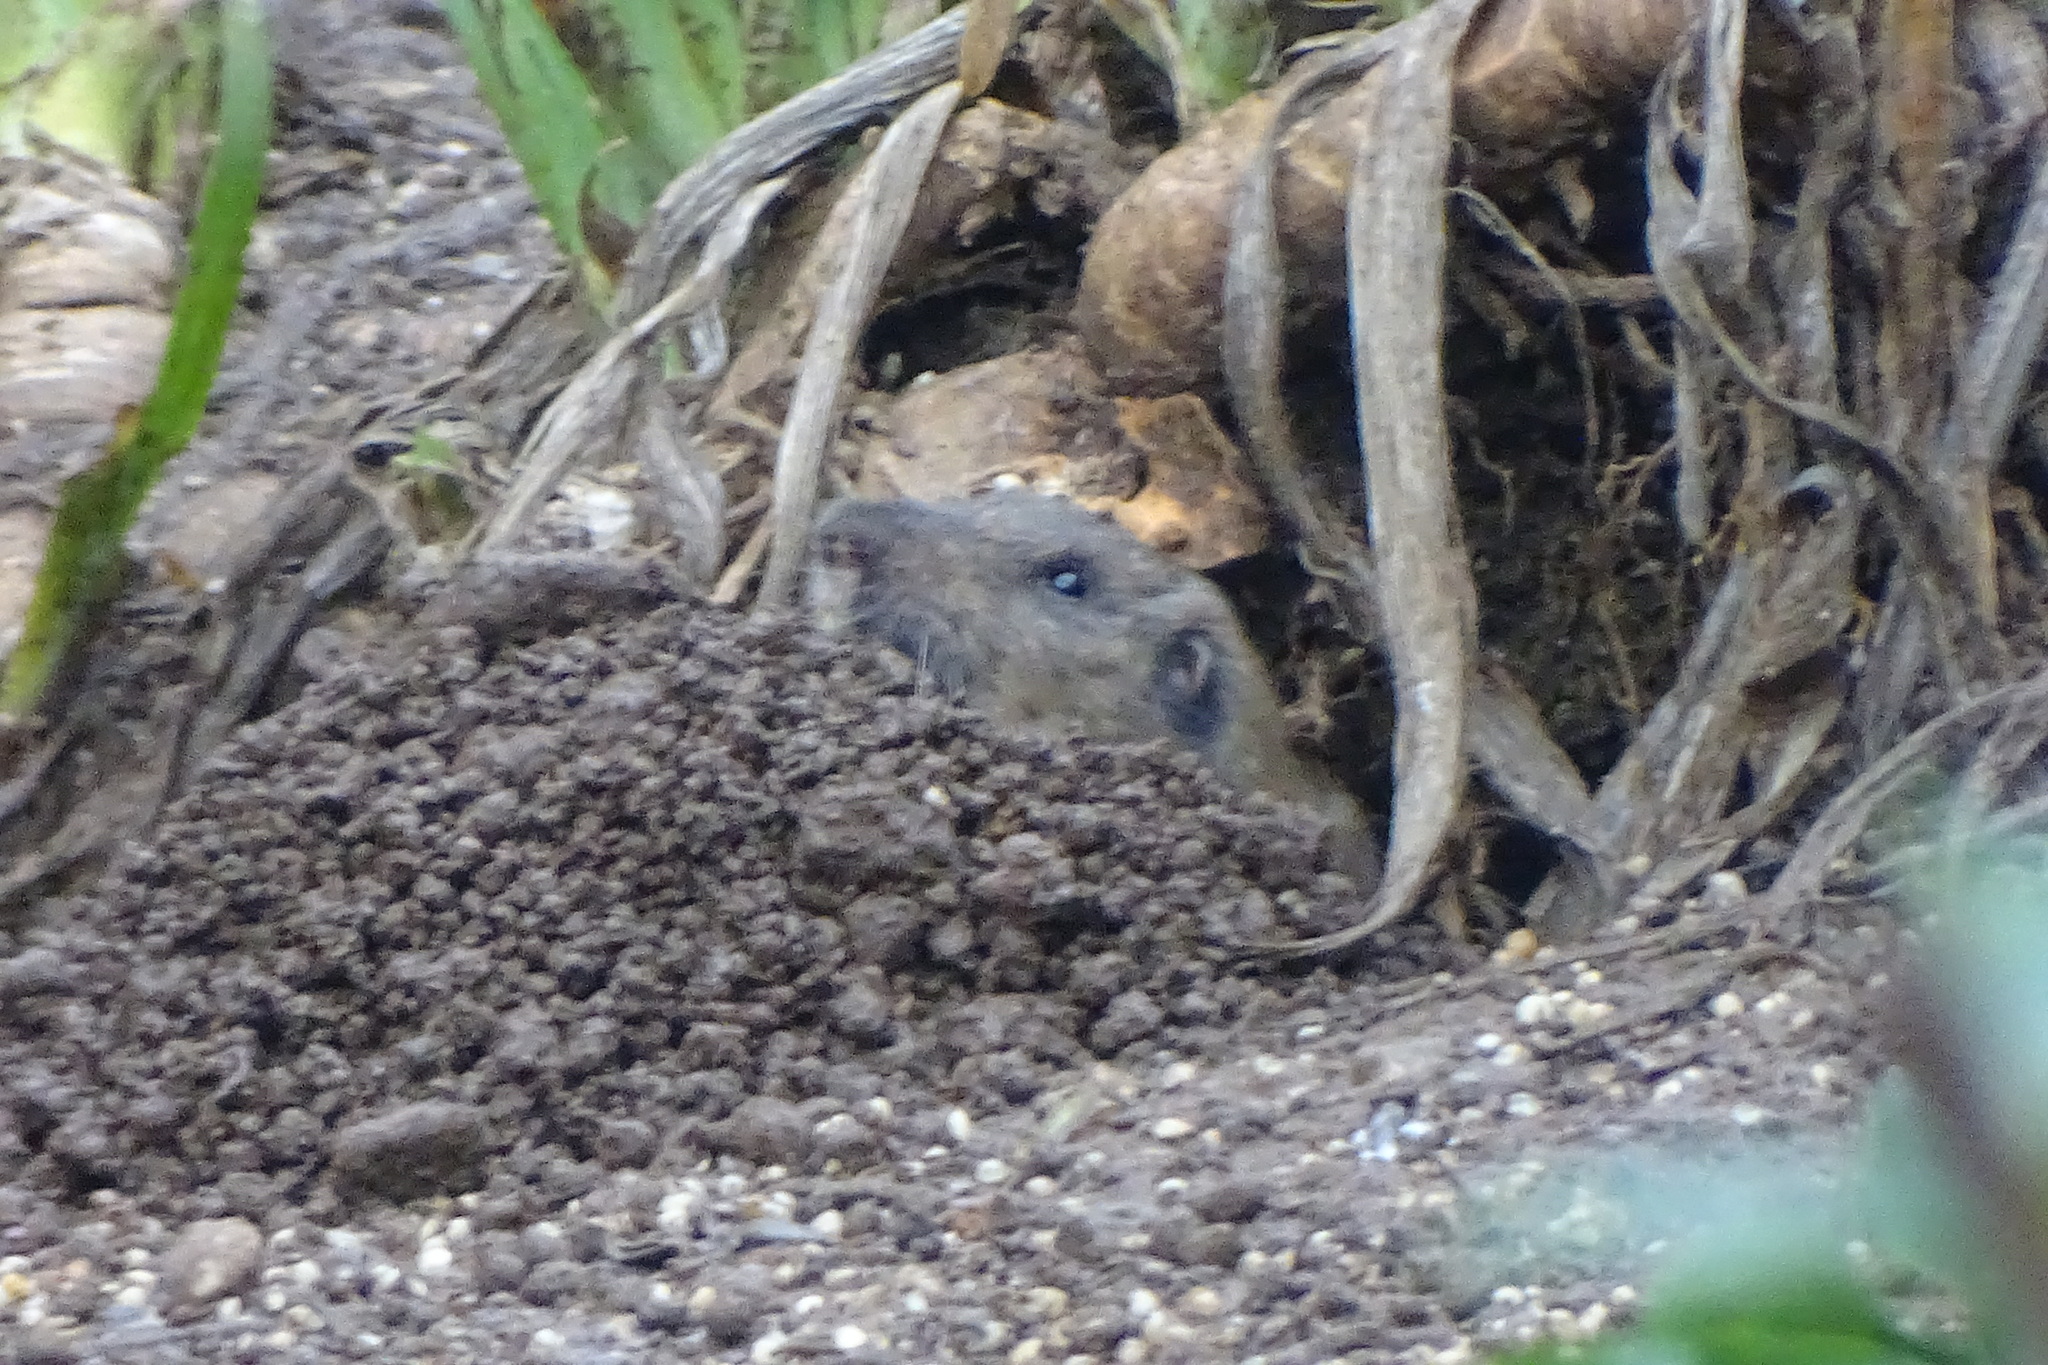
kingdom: Animalia
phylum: Chordata
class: Mammalia
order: Rodentia
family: Geomyidae
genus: Thomomys
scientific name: Thomomys bottae
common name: Botta's pocket gopher
